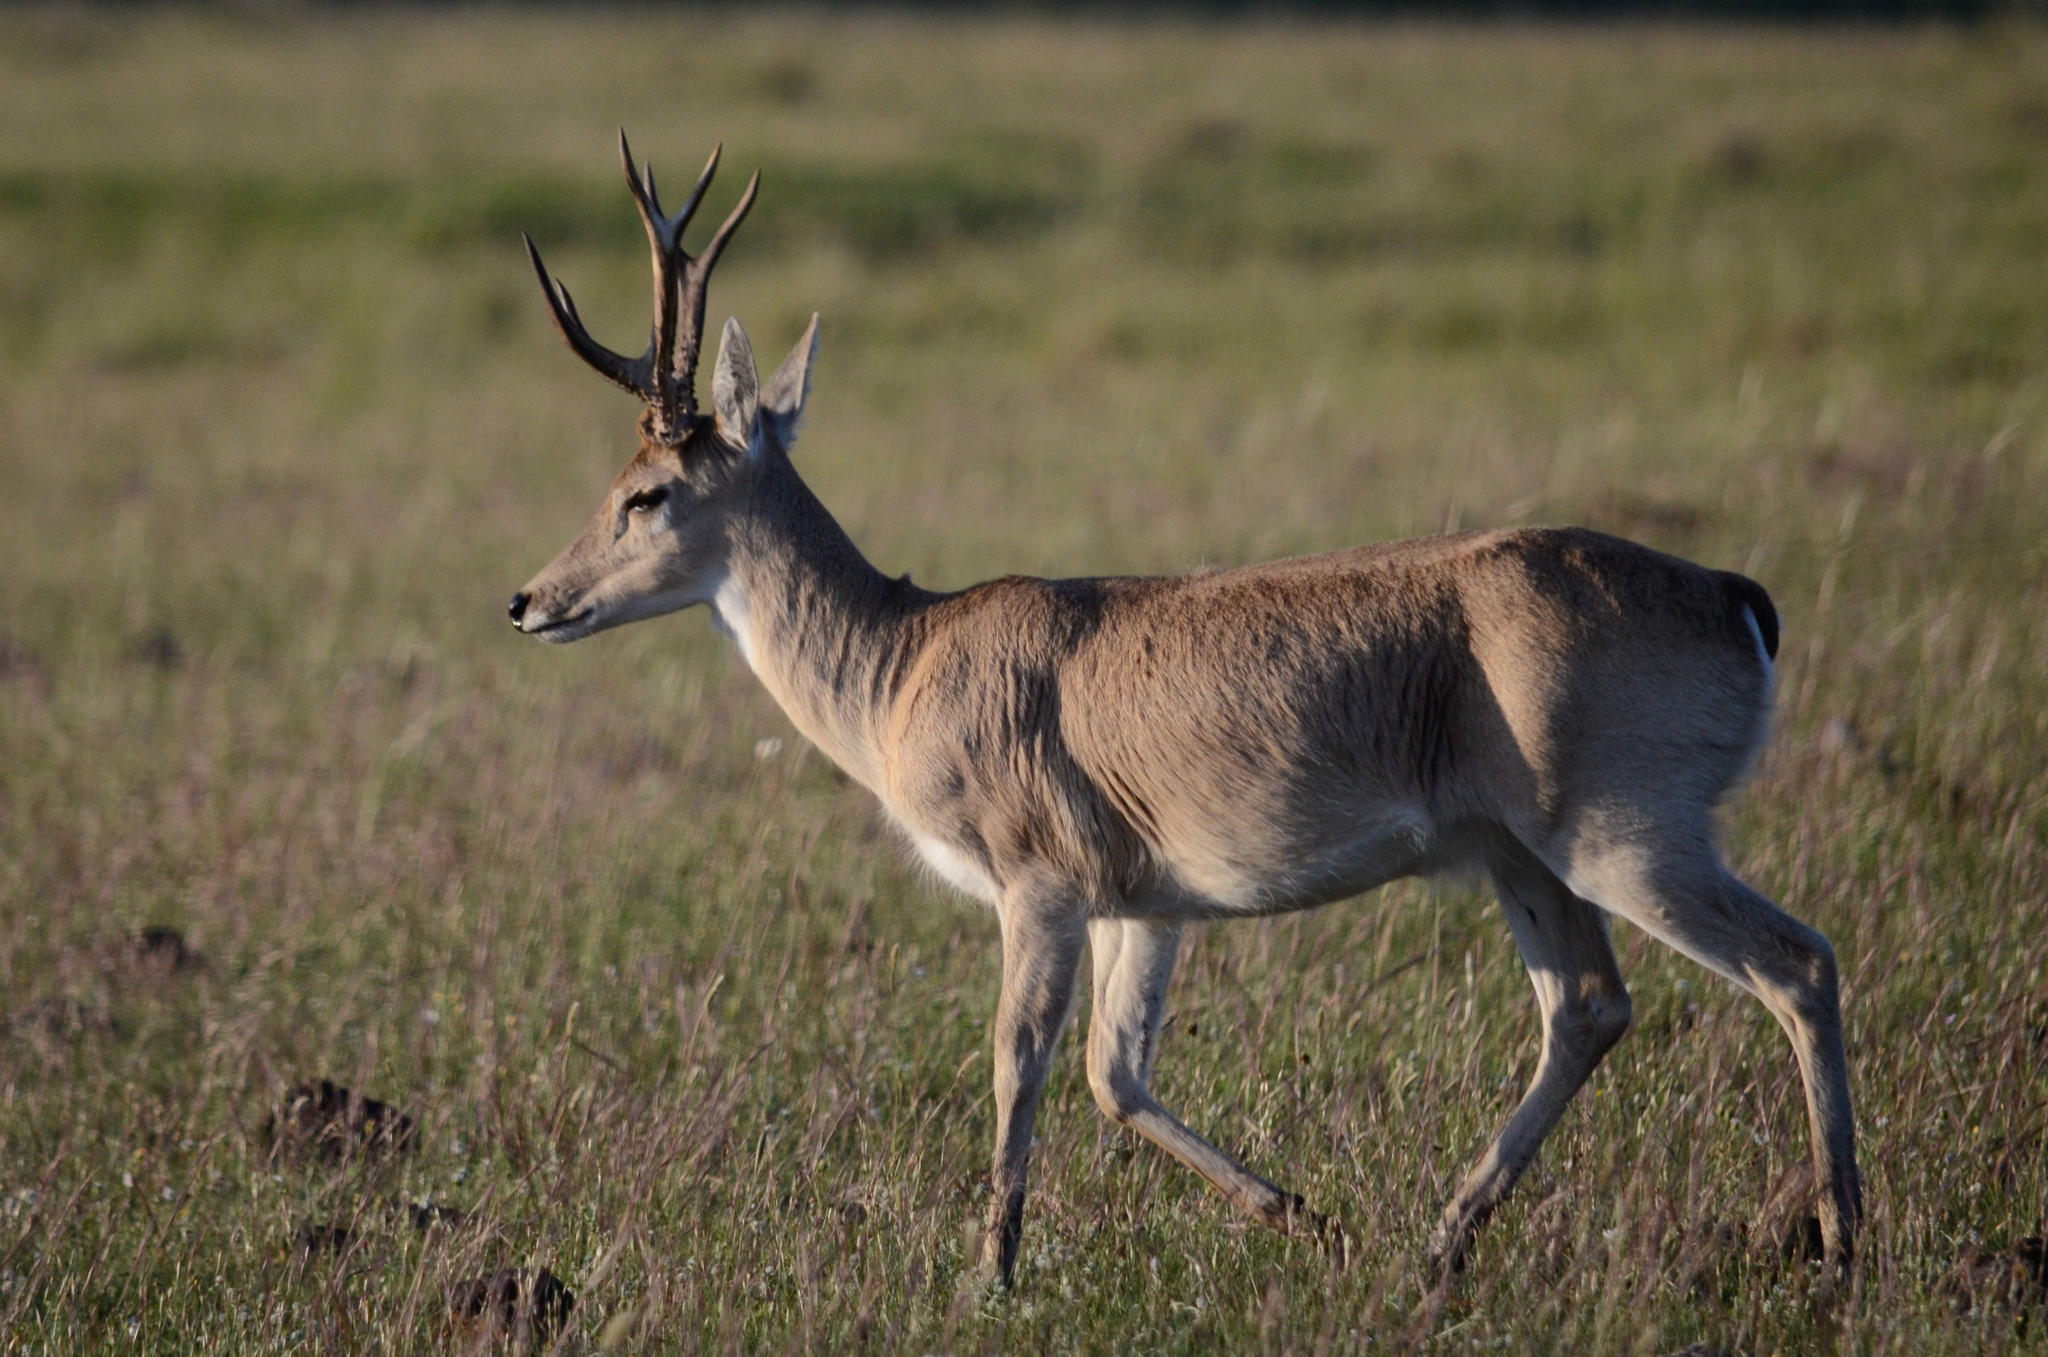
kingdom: Animalia
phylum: Chordata
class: Mammalia
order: Artiodactyla
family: Cervidae
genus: Ozotoceros
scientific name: Ozotoceros bezoarticus
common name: Pampas deer
